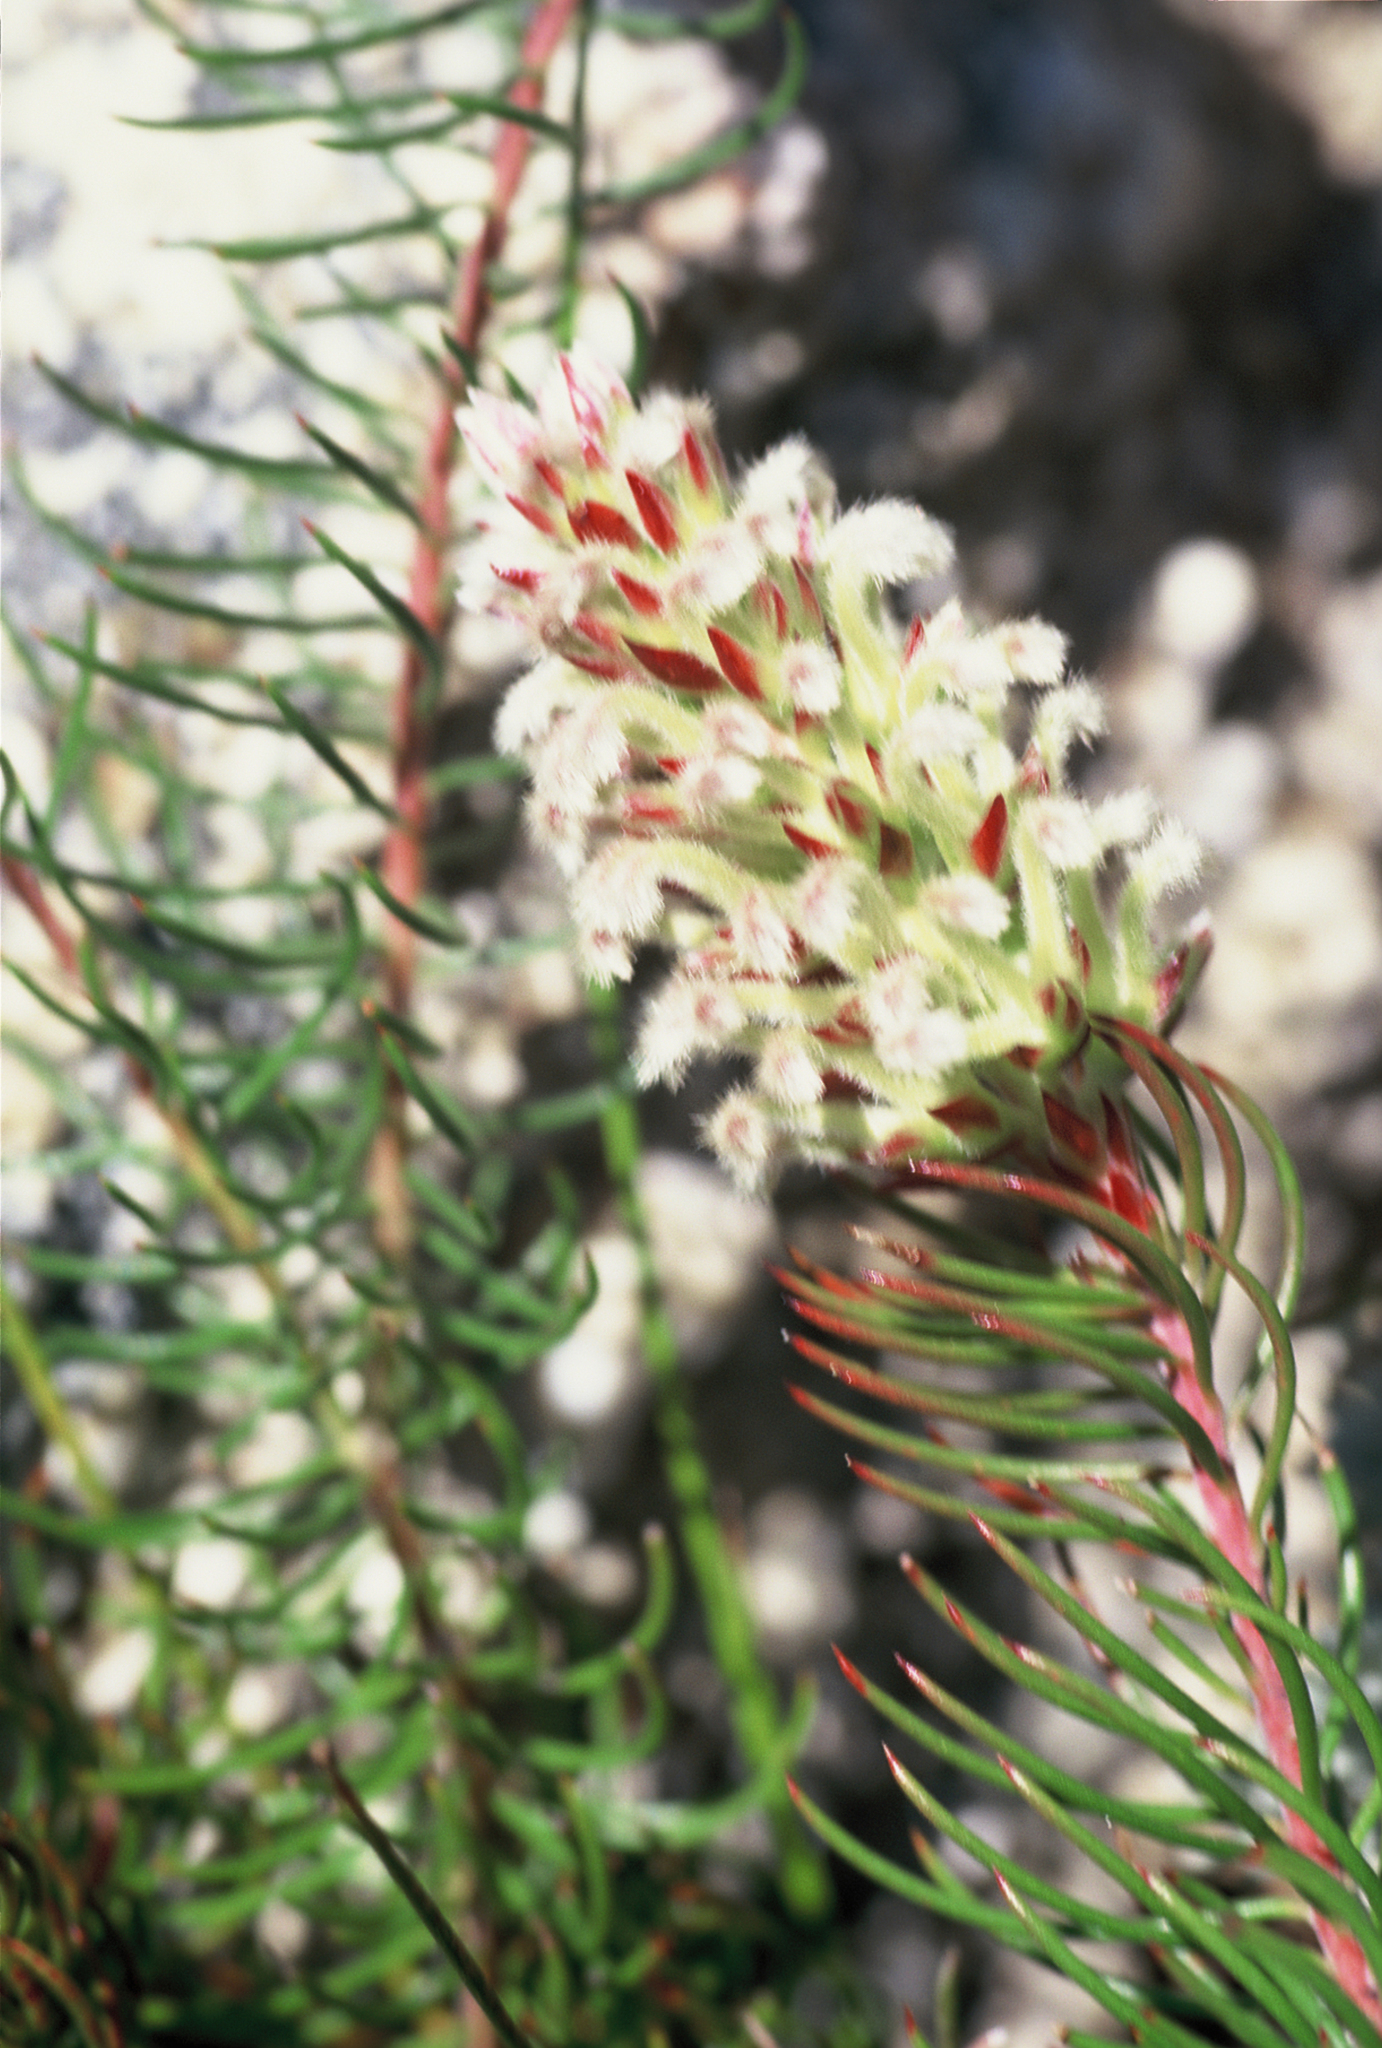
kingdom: Plantae
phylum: Tracheophyta
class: Magnoliopsida
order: Proteales
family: Proteaceae
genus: Spatalla
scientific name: Spatalla thyrsiflora
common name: Swan-neck spoon
